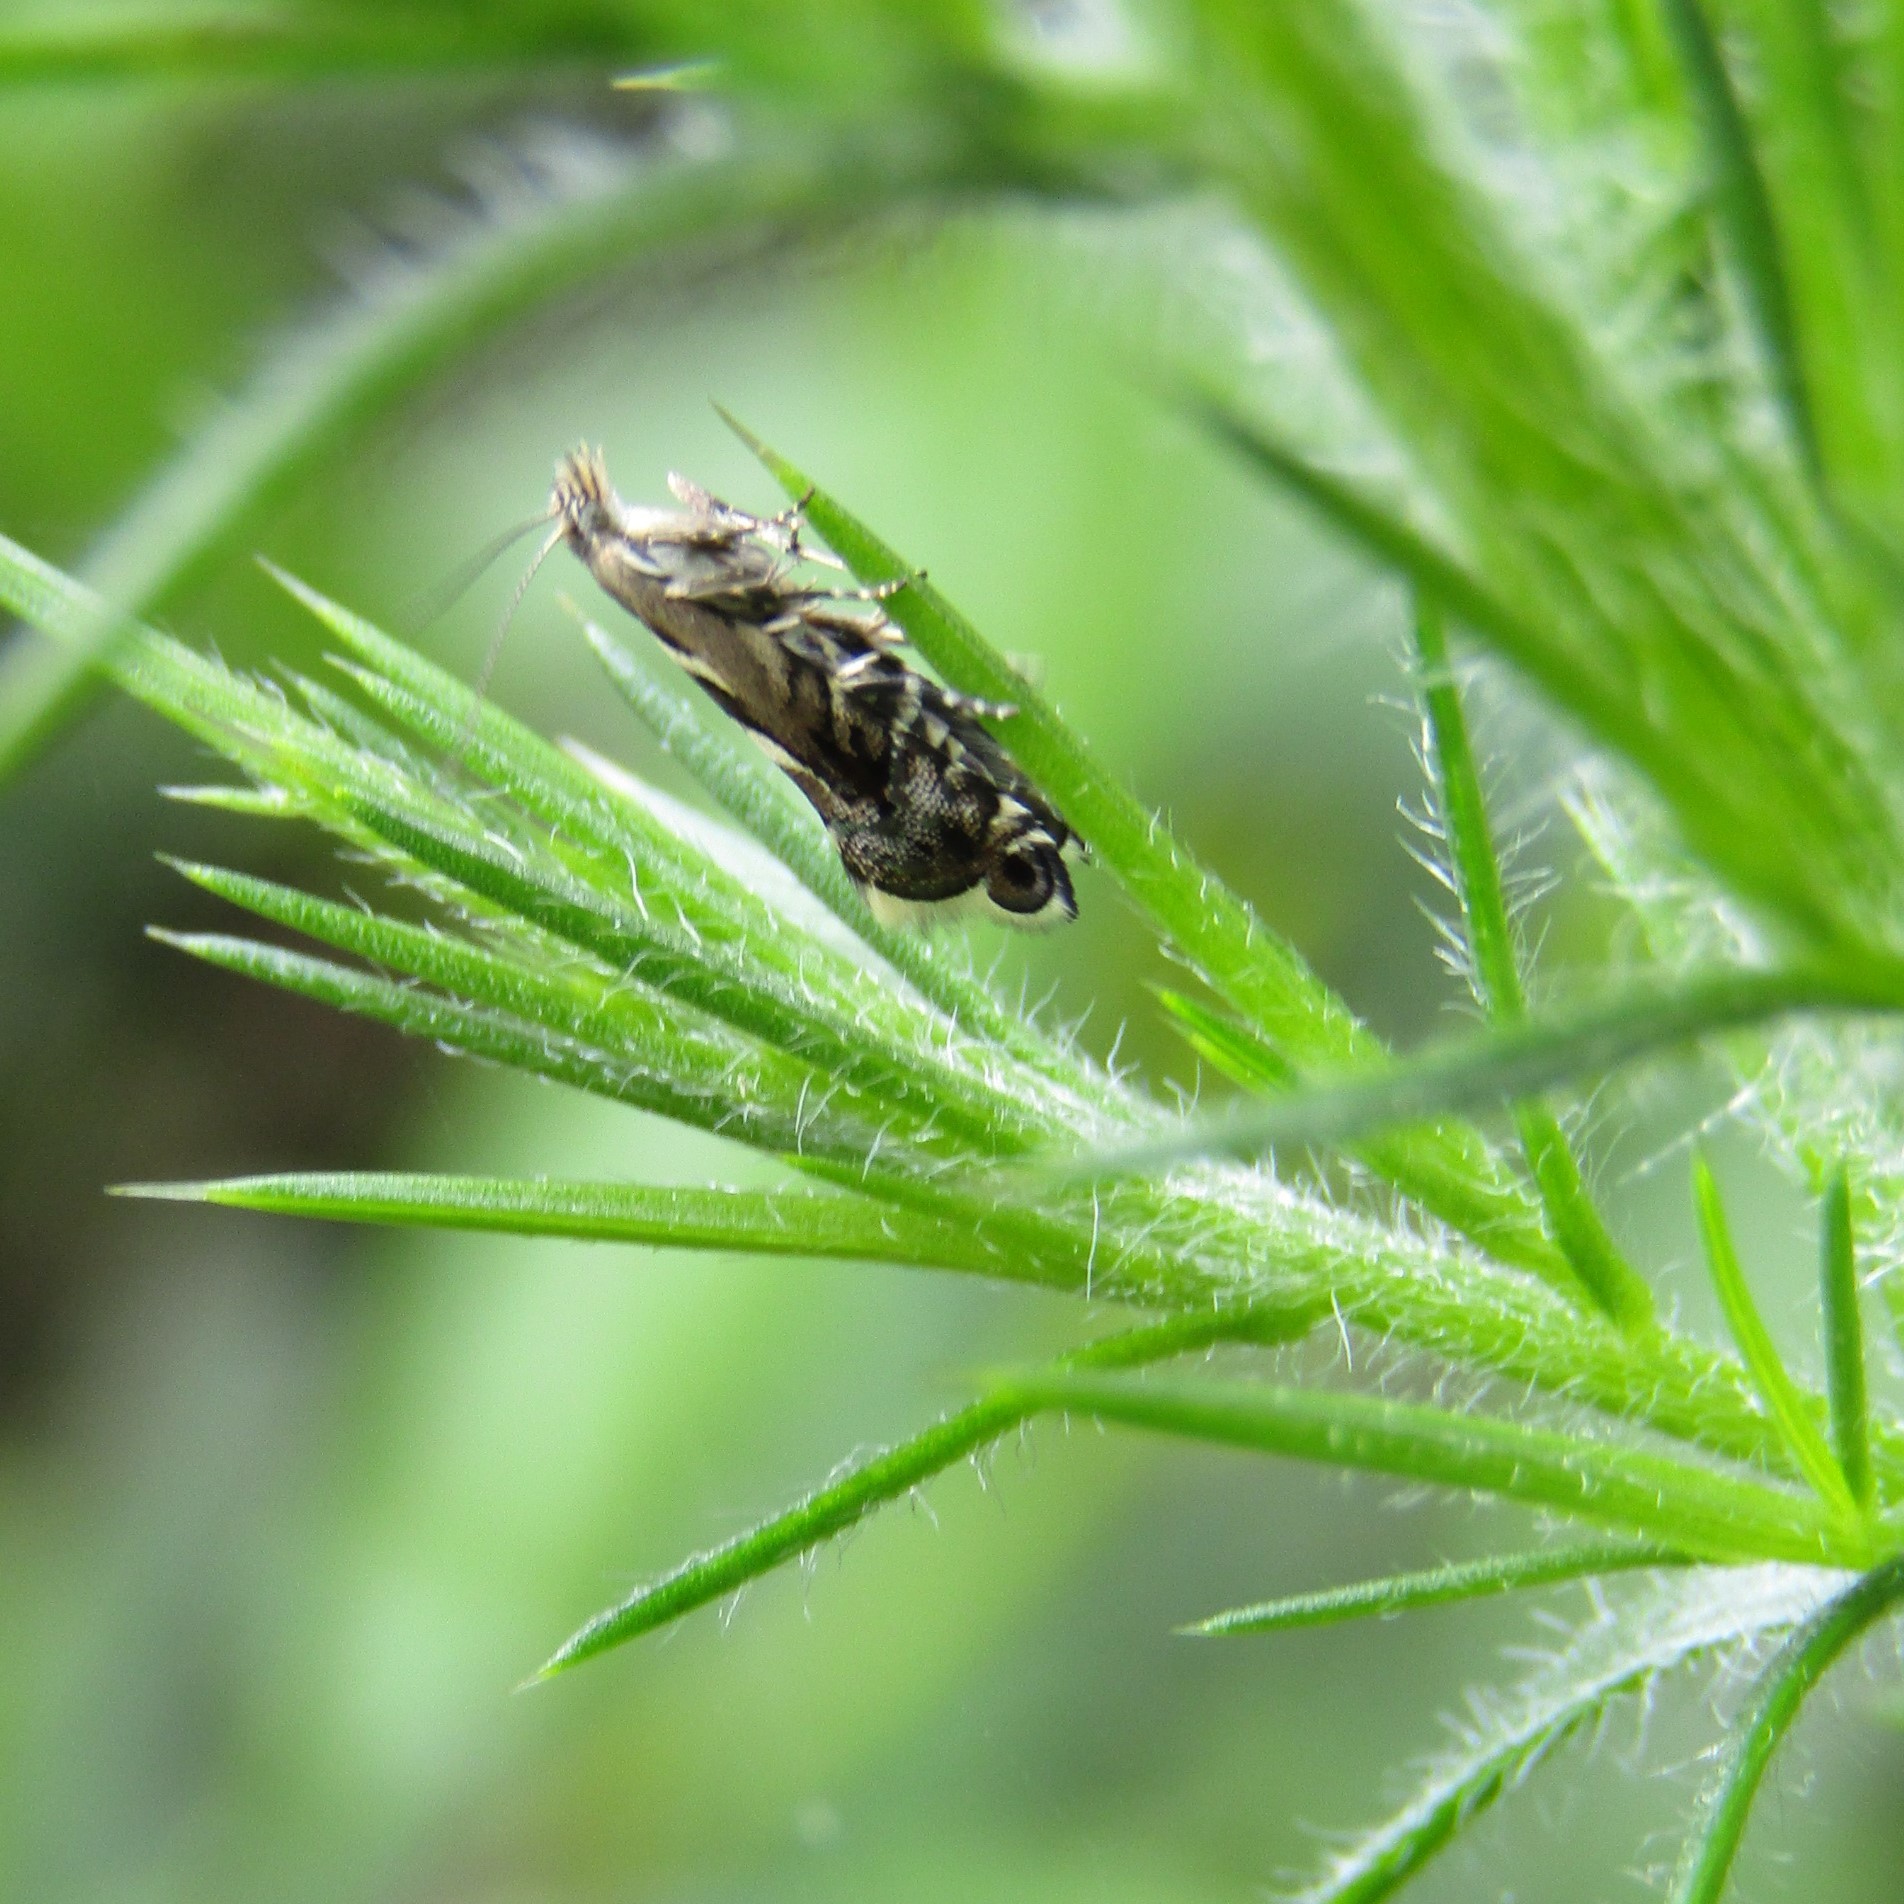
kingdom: Animalia
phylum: Arthropoda
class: Insecta
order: Lepidoptera
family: Glyphipterigidae
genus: Glyphipterix
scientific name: Glyphipterix asteronota
